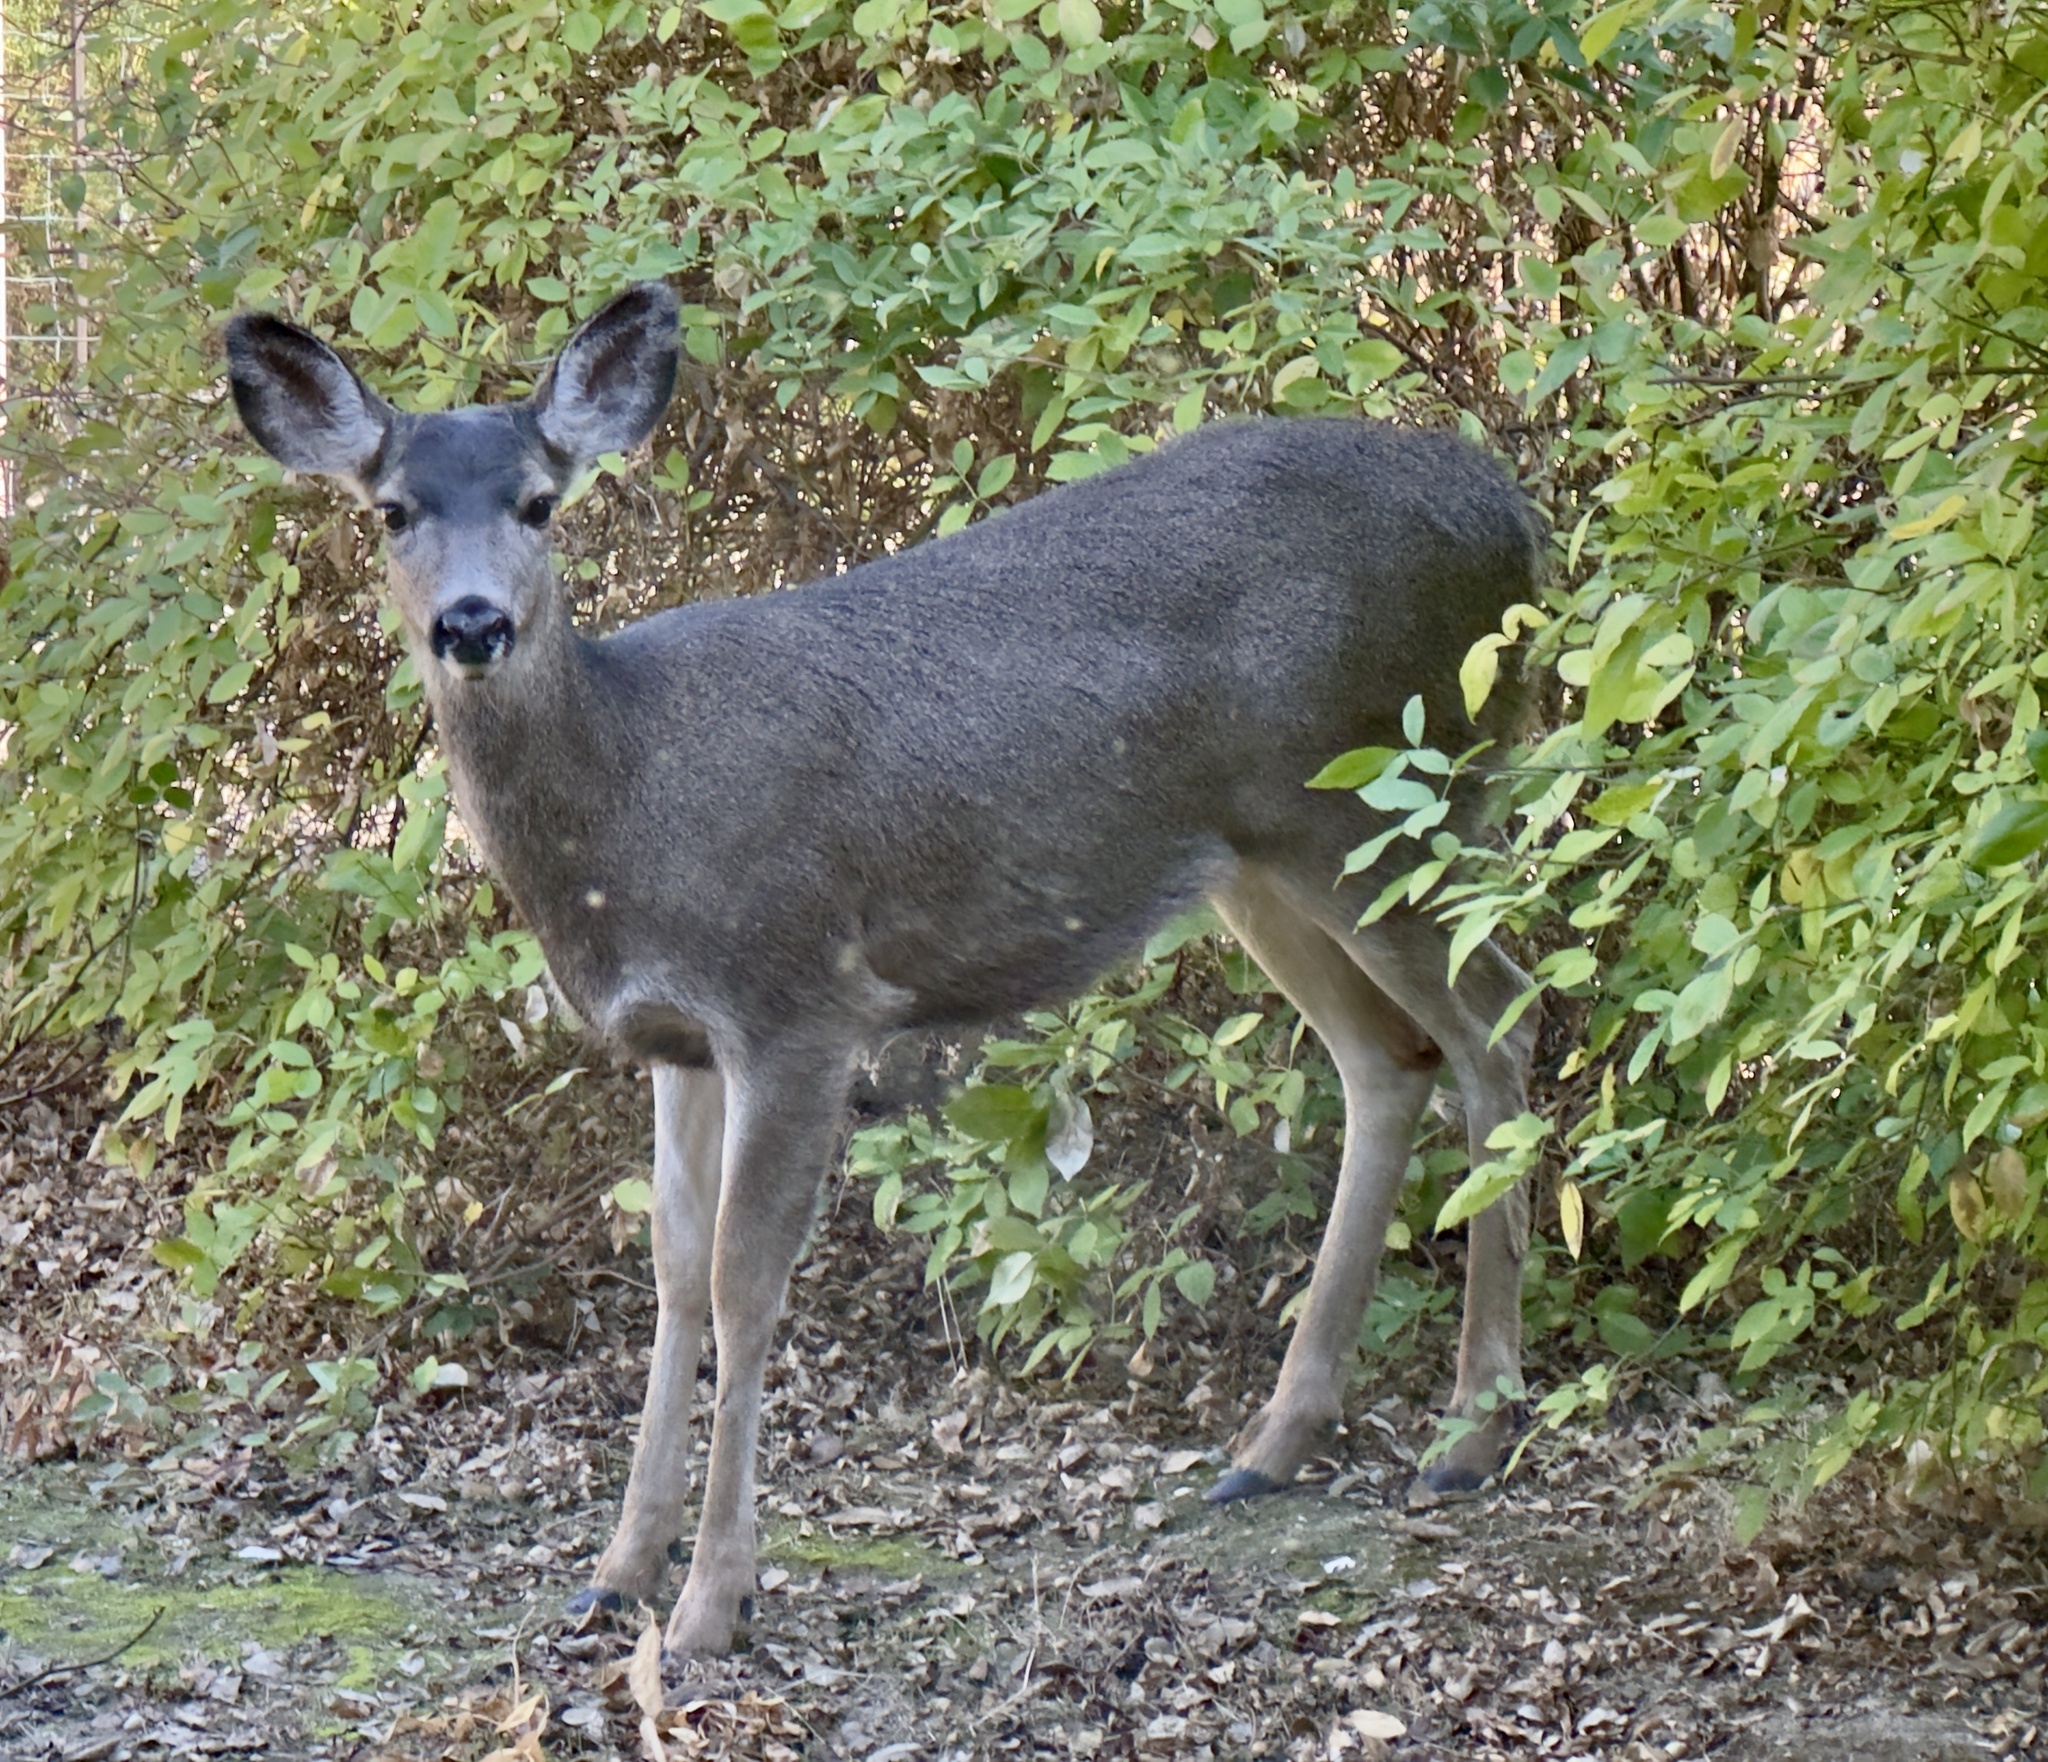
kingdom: Animalia
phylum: Chordata
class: Mammalia
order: Artiodactyla
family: Cervidae
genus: Odocoileus
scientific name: Odocoileus hemionus
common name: Mule deer
